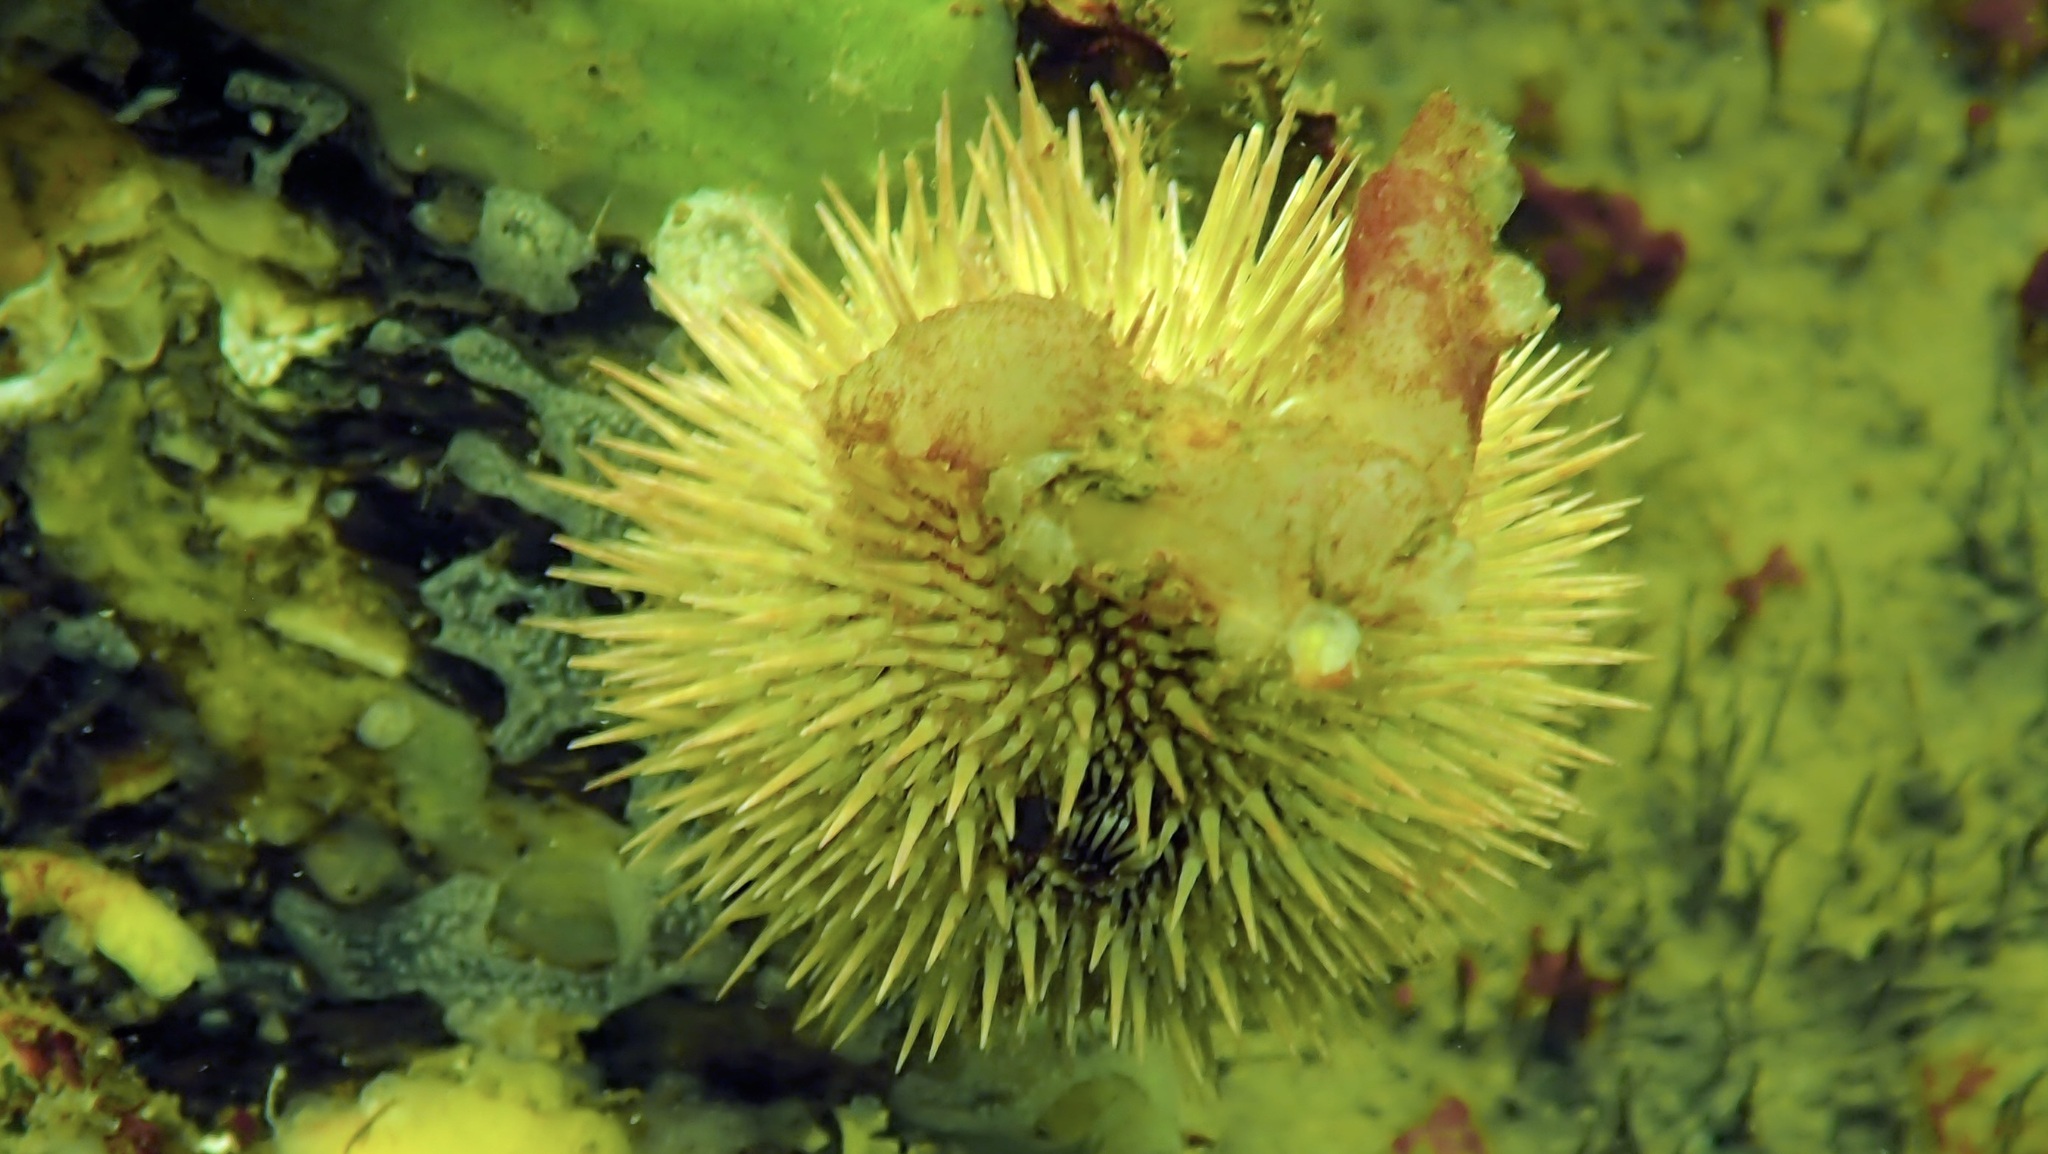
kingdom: Animalia
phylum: Echinodermata
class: Echinoidea
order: Camarodonta
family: Parechinidae
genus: Psammechinus
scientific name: Psammechinus miliaris
